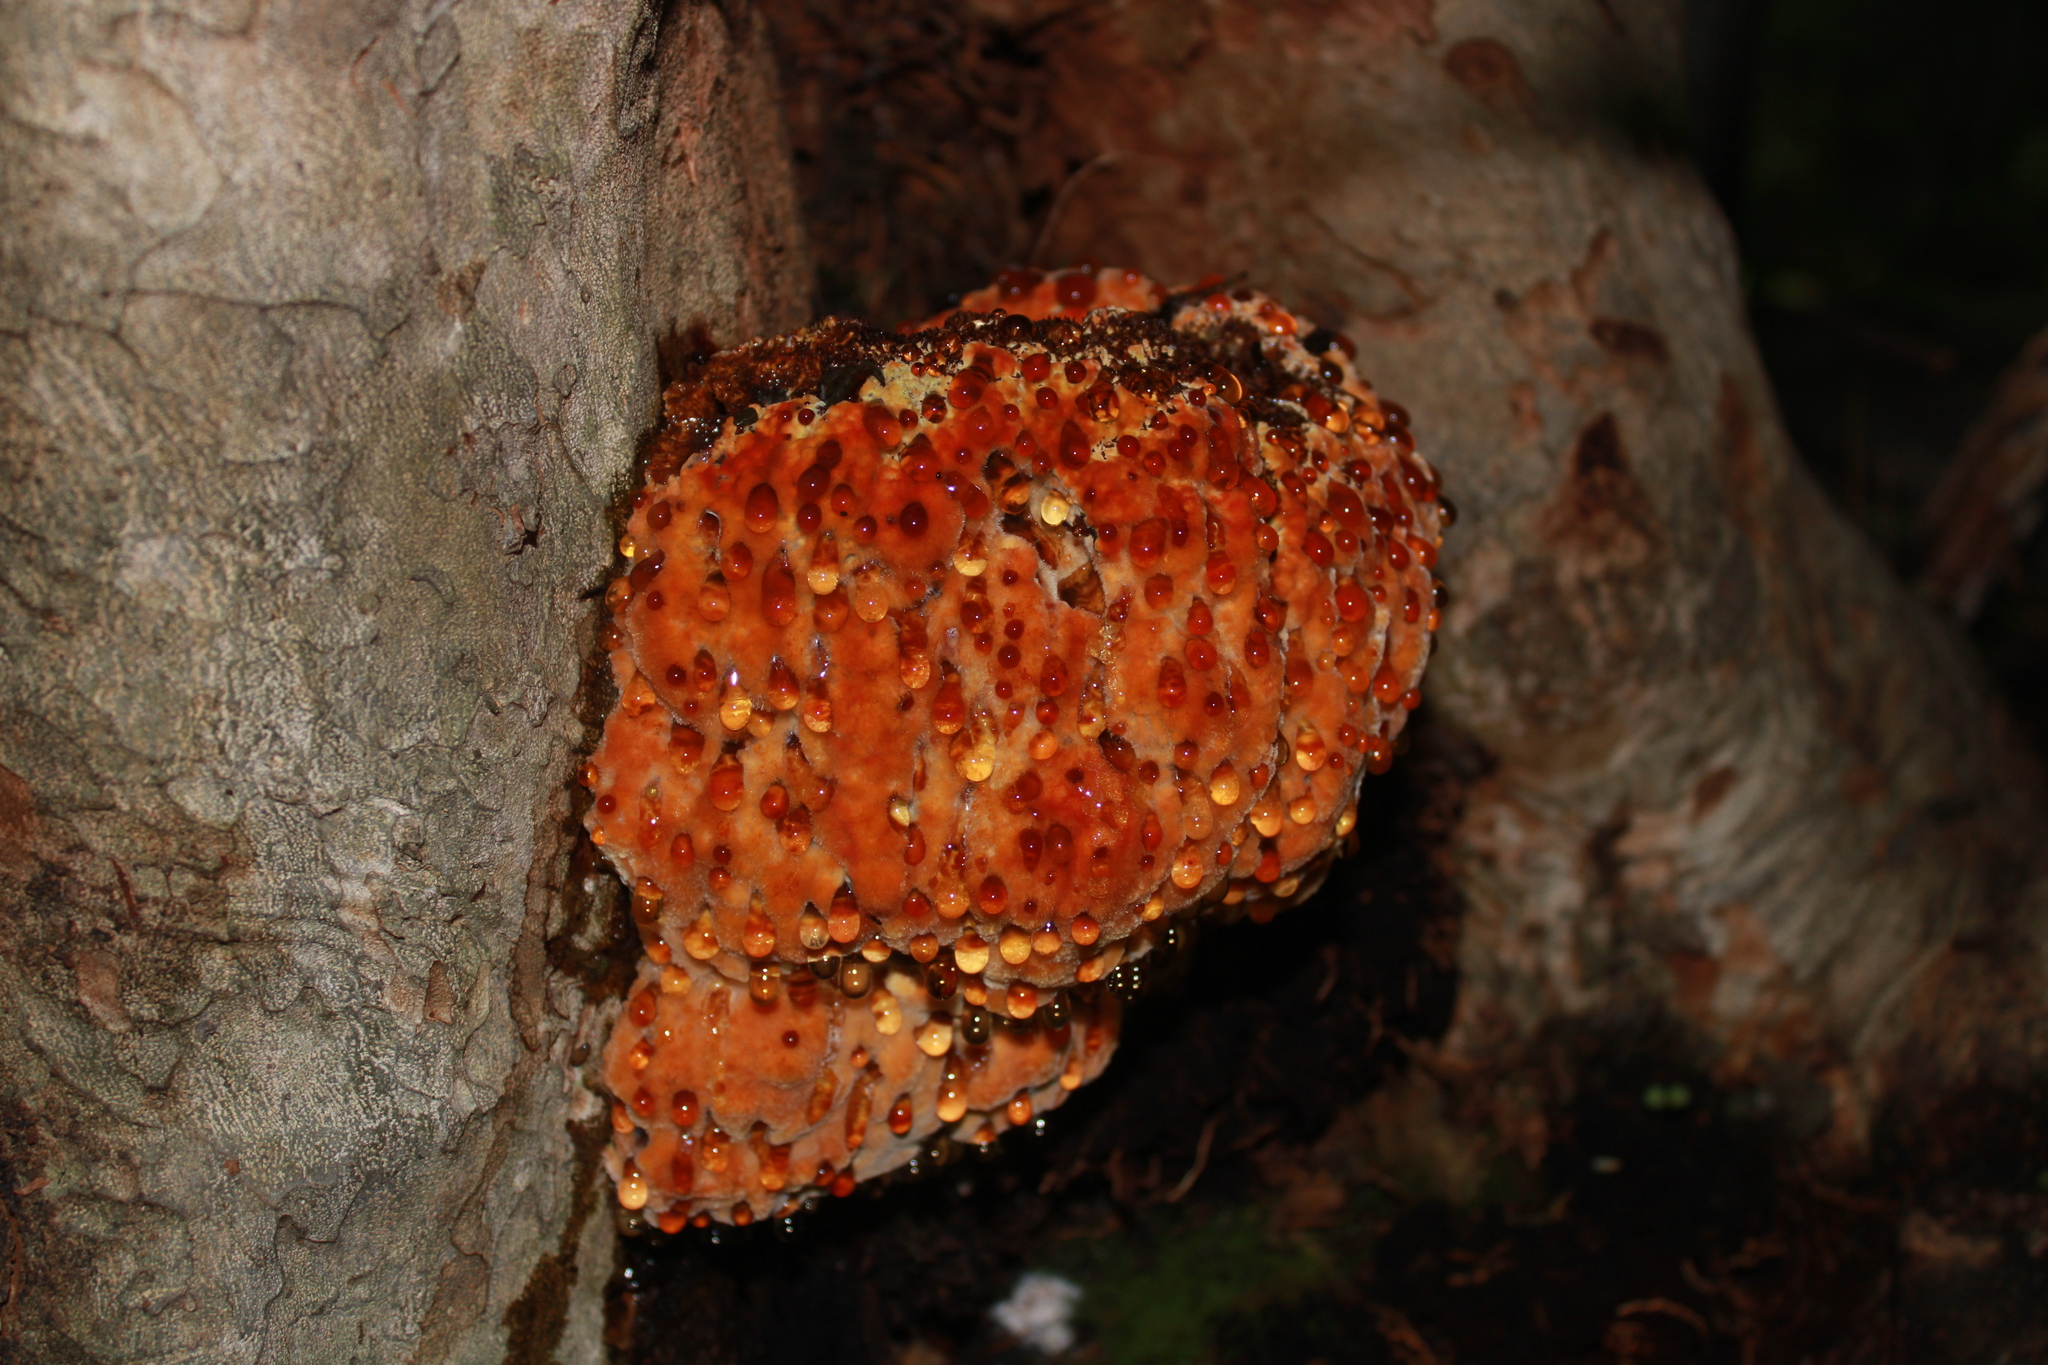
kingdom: Fungi
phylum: Basidiomycota
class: Agaricomycetes
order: Polyporales
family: Meripilaceae
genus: Rigidoporus
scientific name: Rigidoporus crocatus
